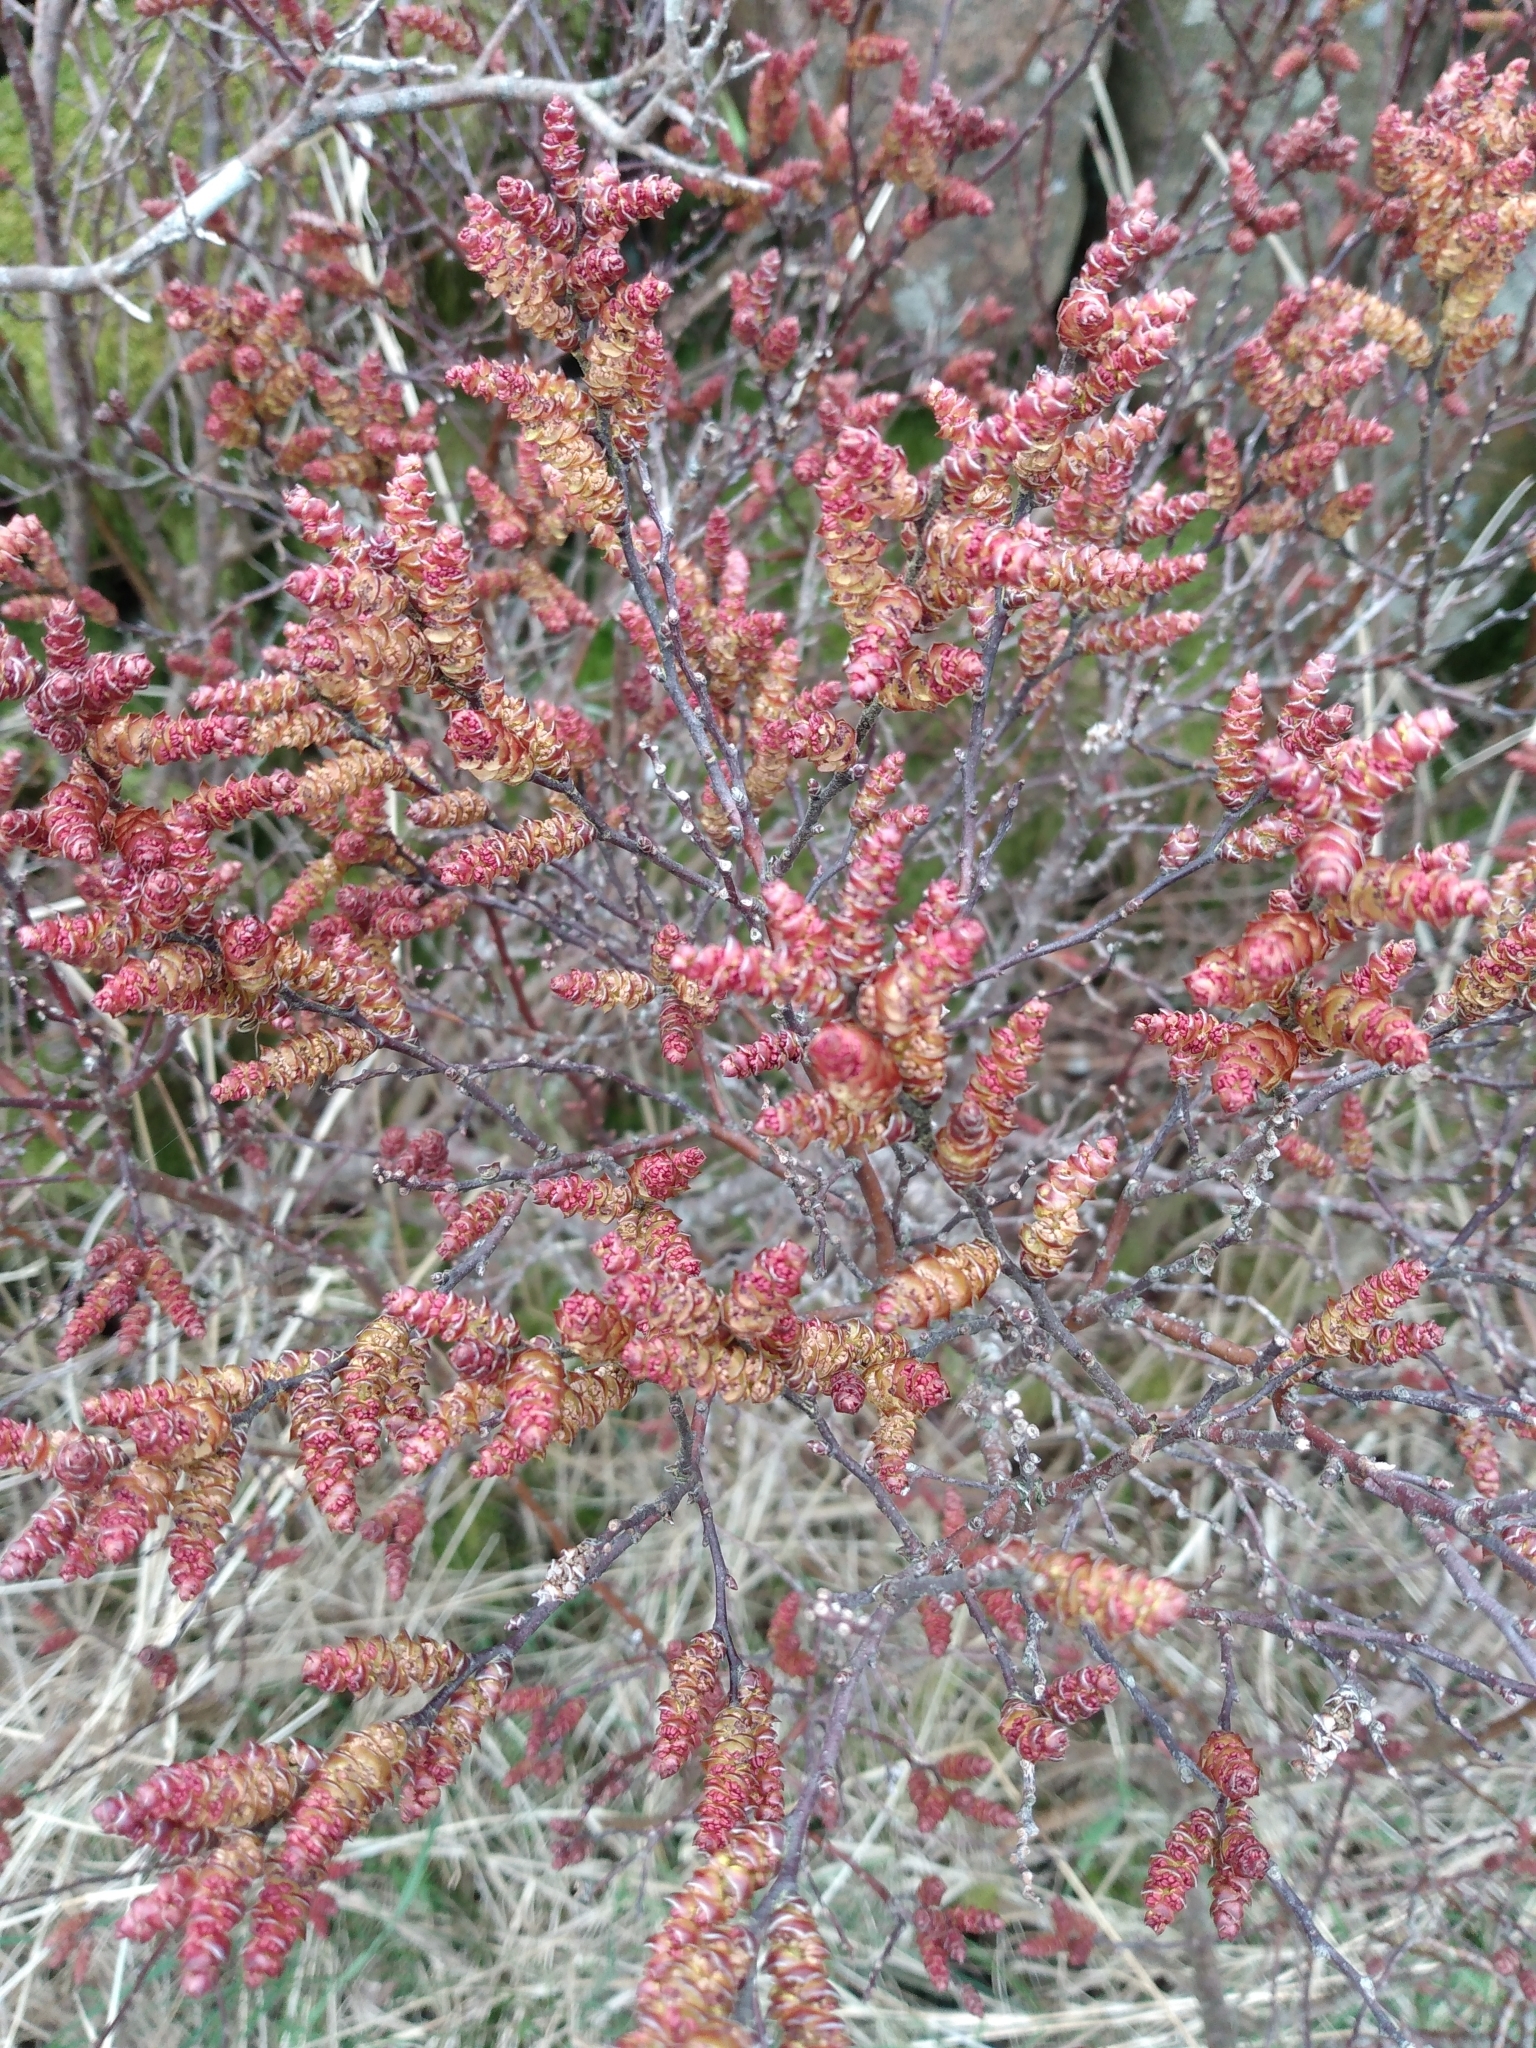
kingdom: Plantae
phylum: Tracheophyta
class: Magnoliopsida
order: Fagales
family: Myricaceae
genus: Myrica
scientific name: Myrica gale
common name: Sweet gale
